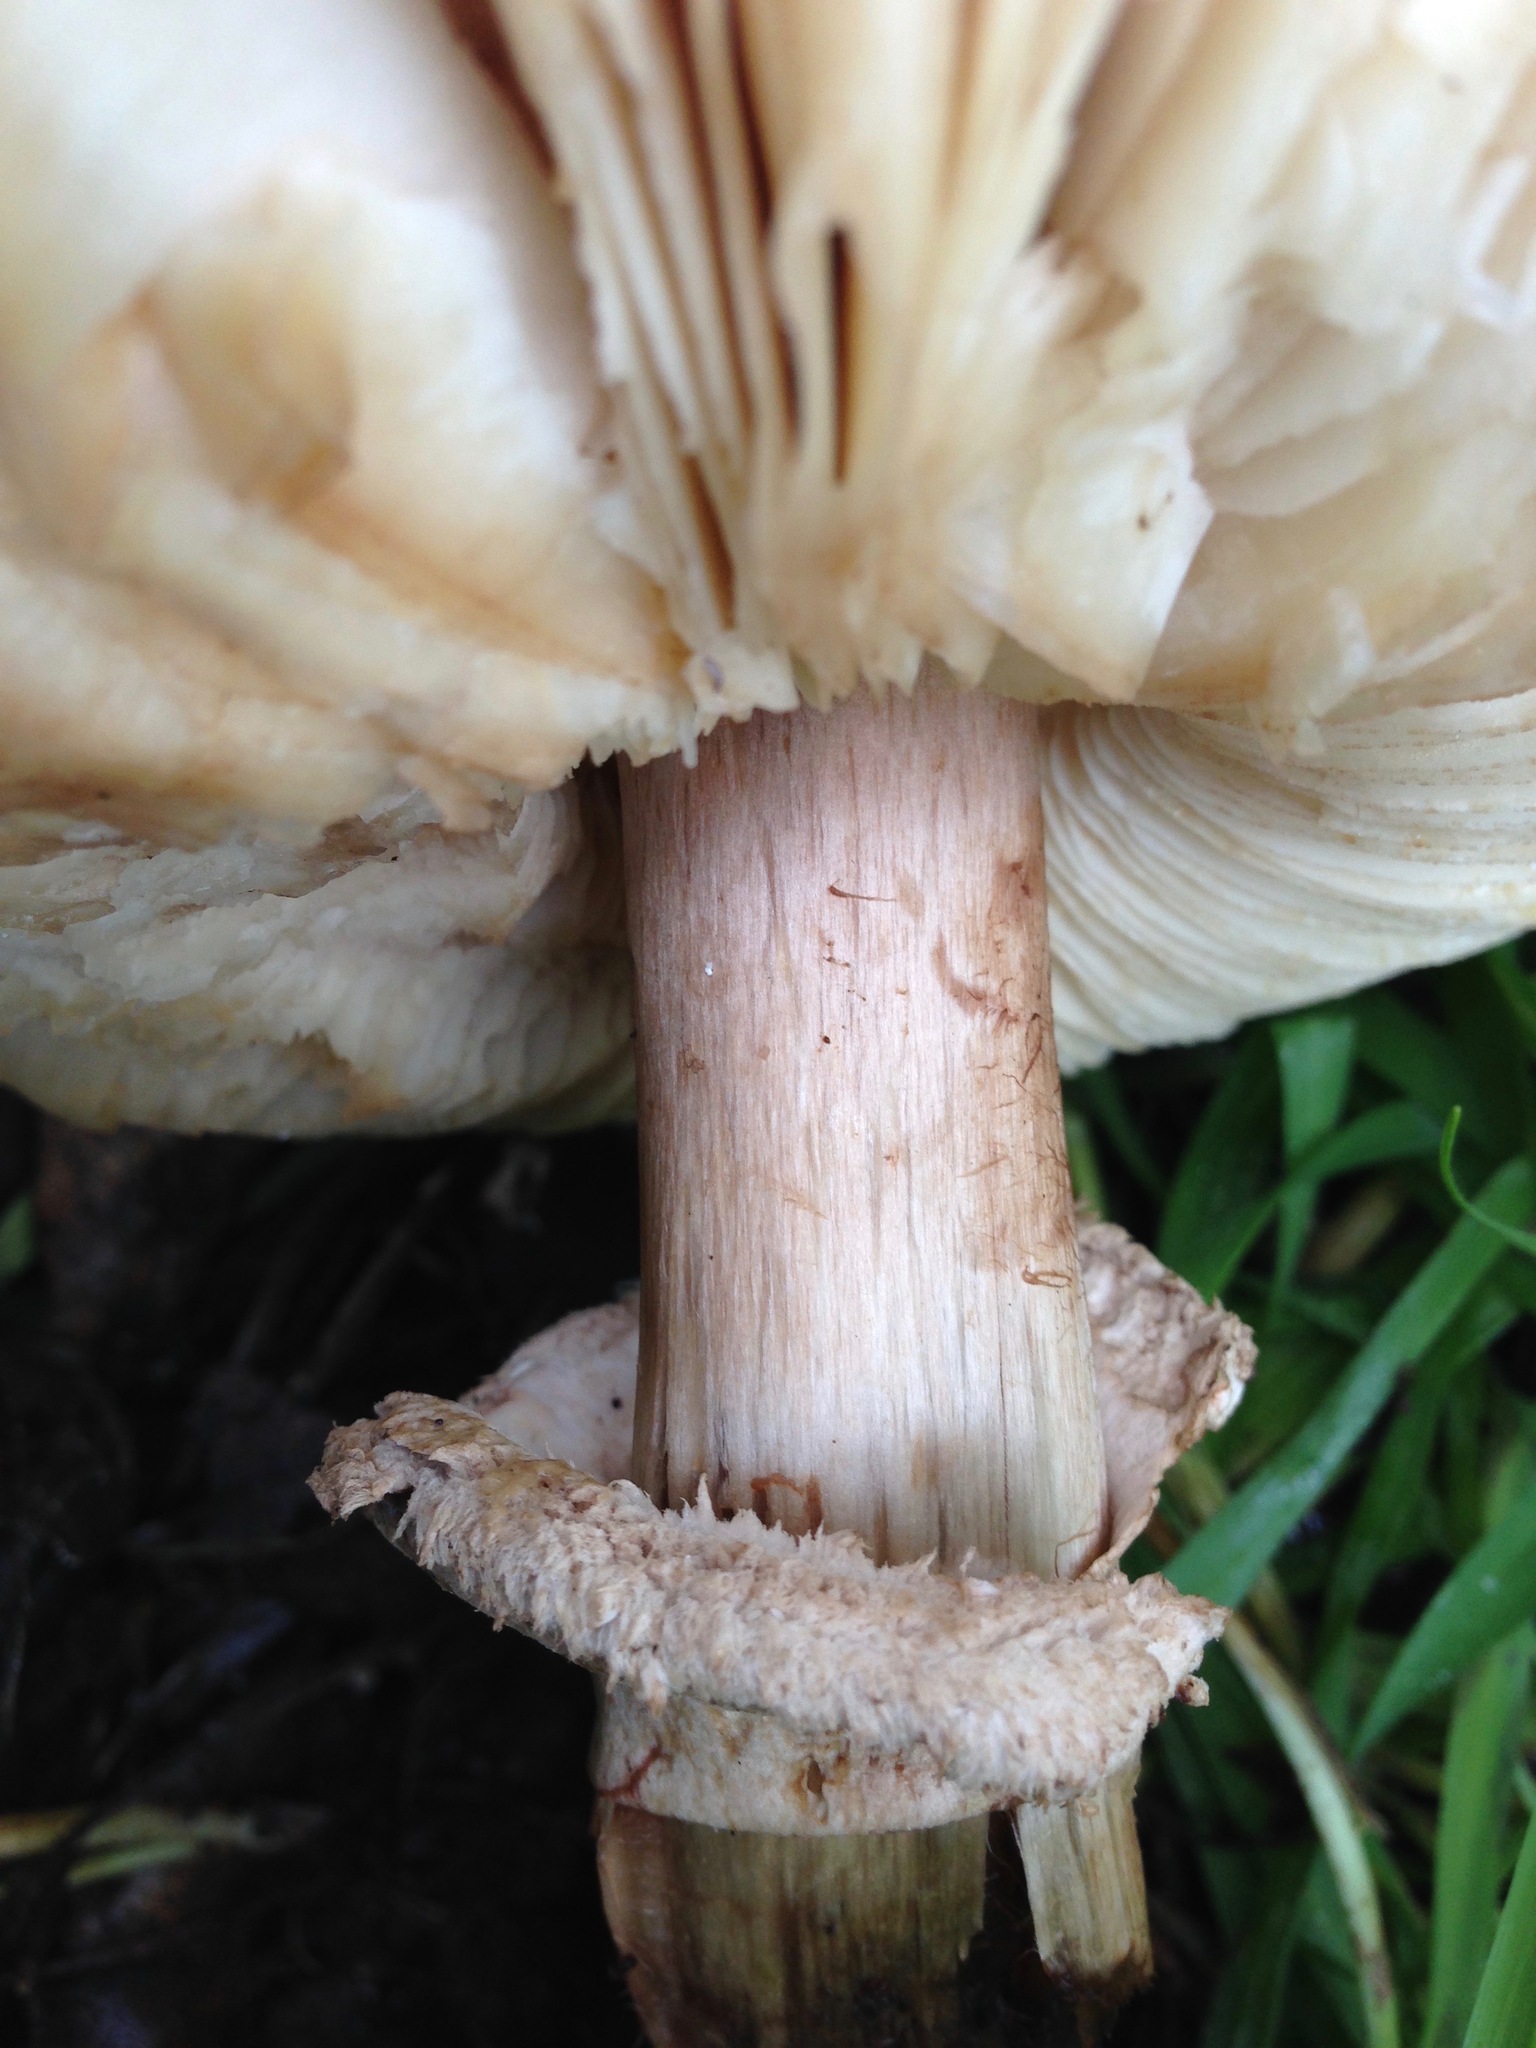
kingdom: Fungi
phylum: Basidiomycota
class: Agaricomycetes
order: Agaricales
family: Agaricaceae
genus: Chlorophyllum
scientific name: Chlorophyllum brunneum
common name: Brown parasol
